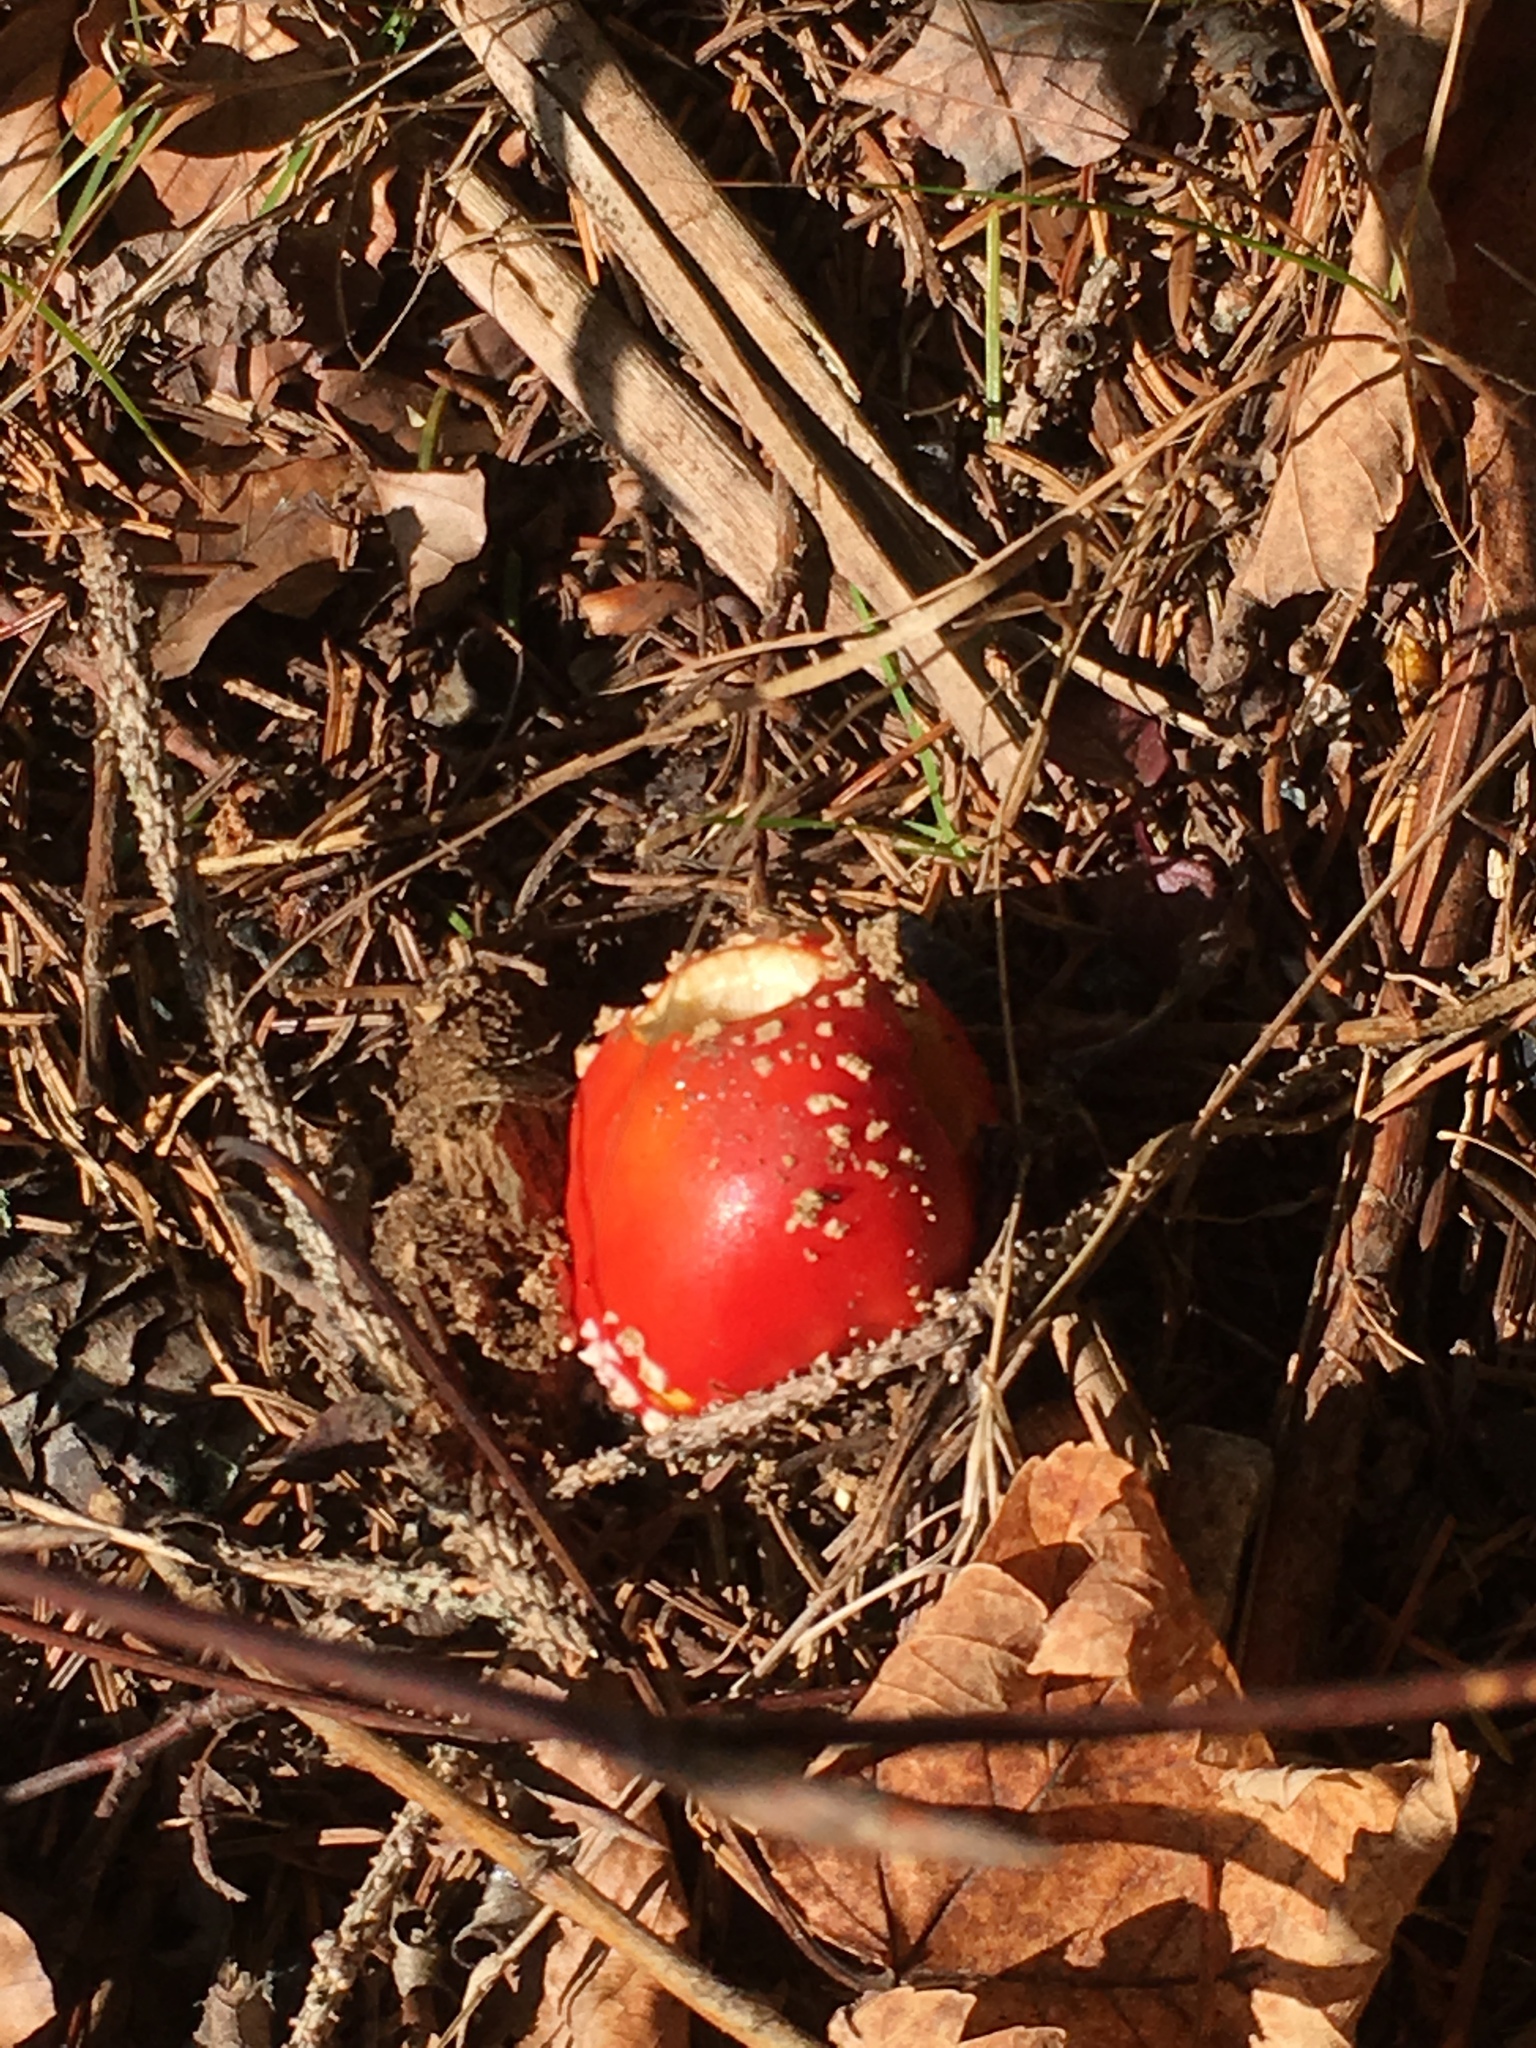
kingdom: Fungi
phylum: Basidiomycota
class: Agaricomycetes
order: Agaricales
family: Amanitaceae
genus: Amanita
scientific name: Amanita muscaria
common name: Fly agaric
